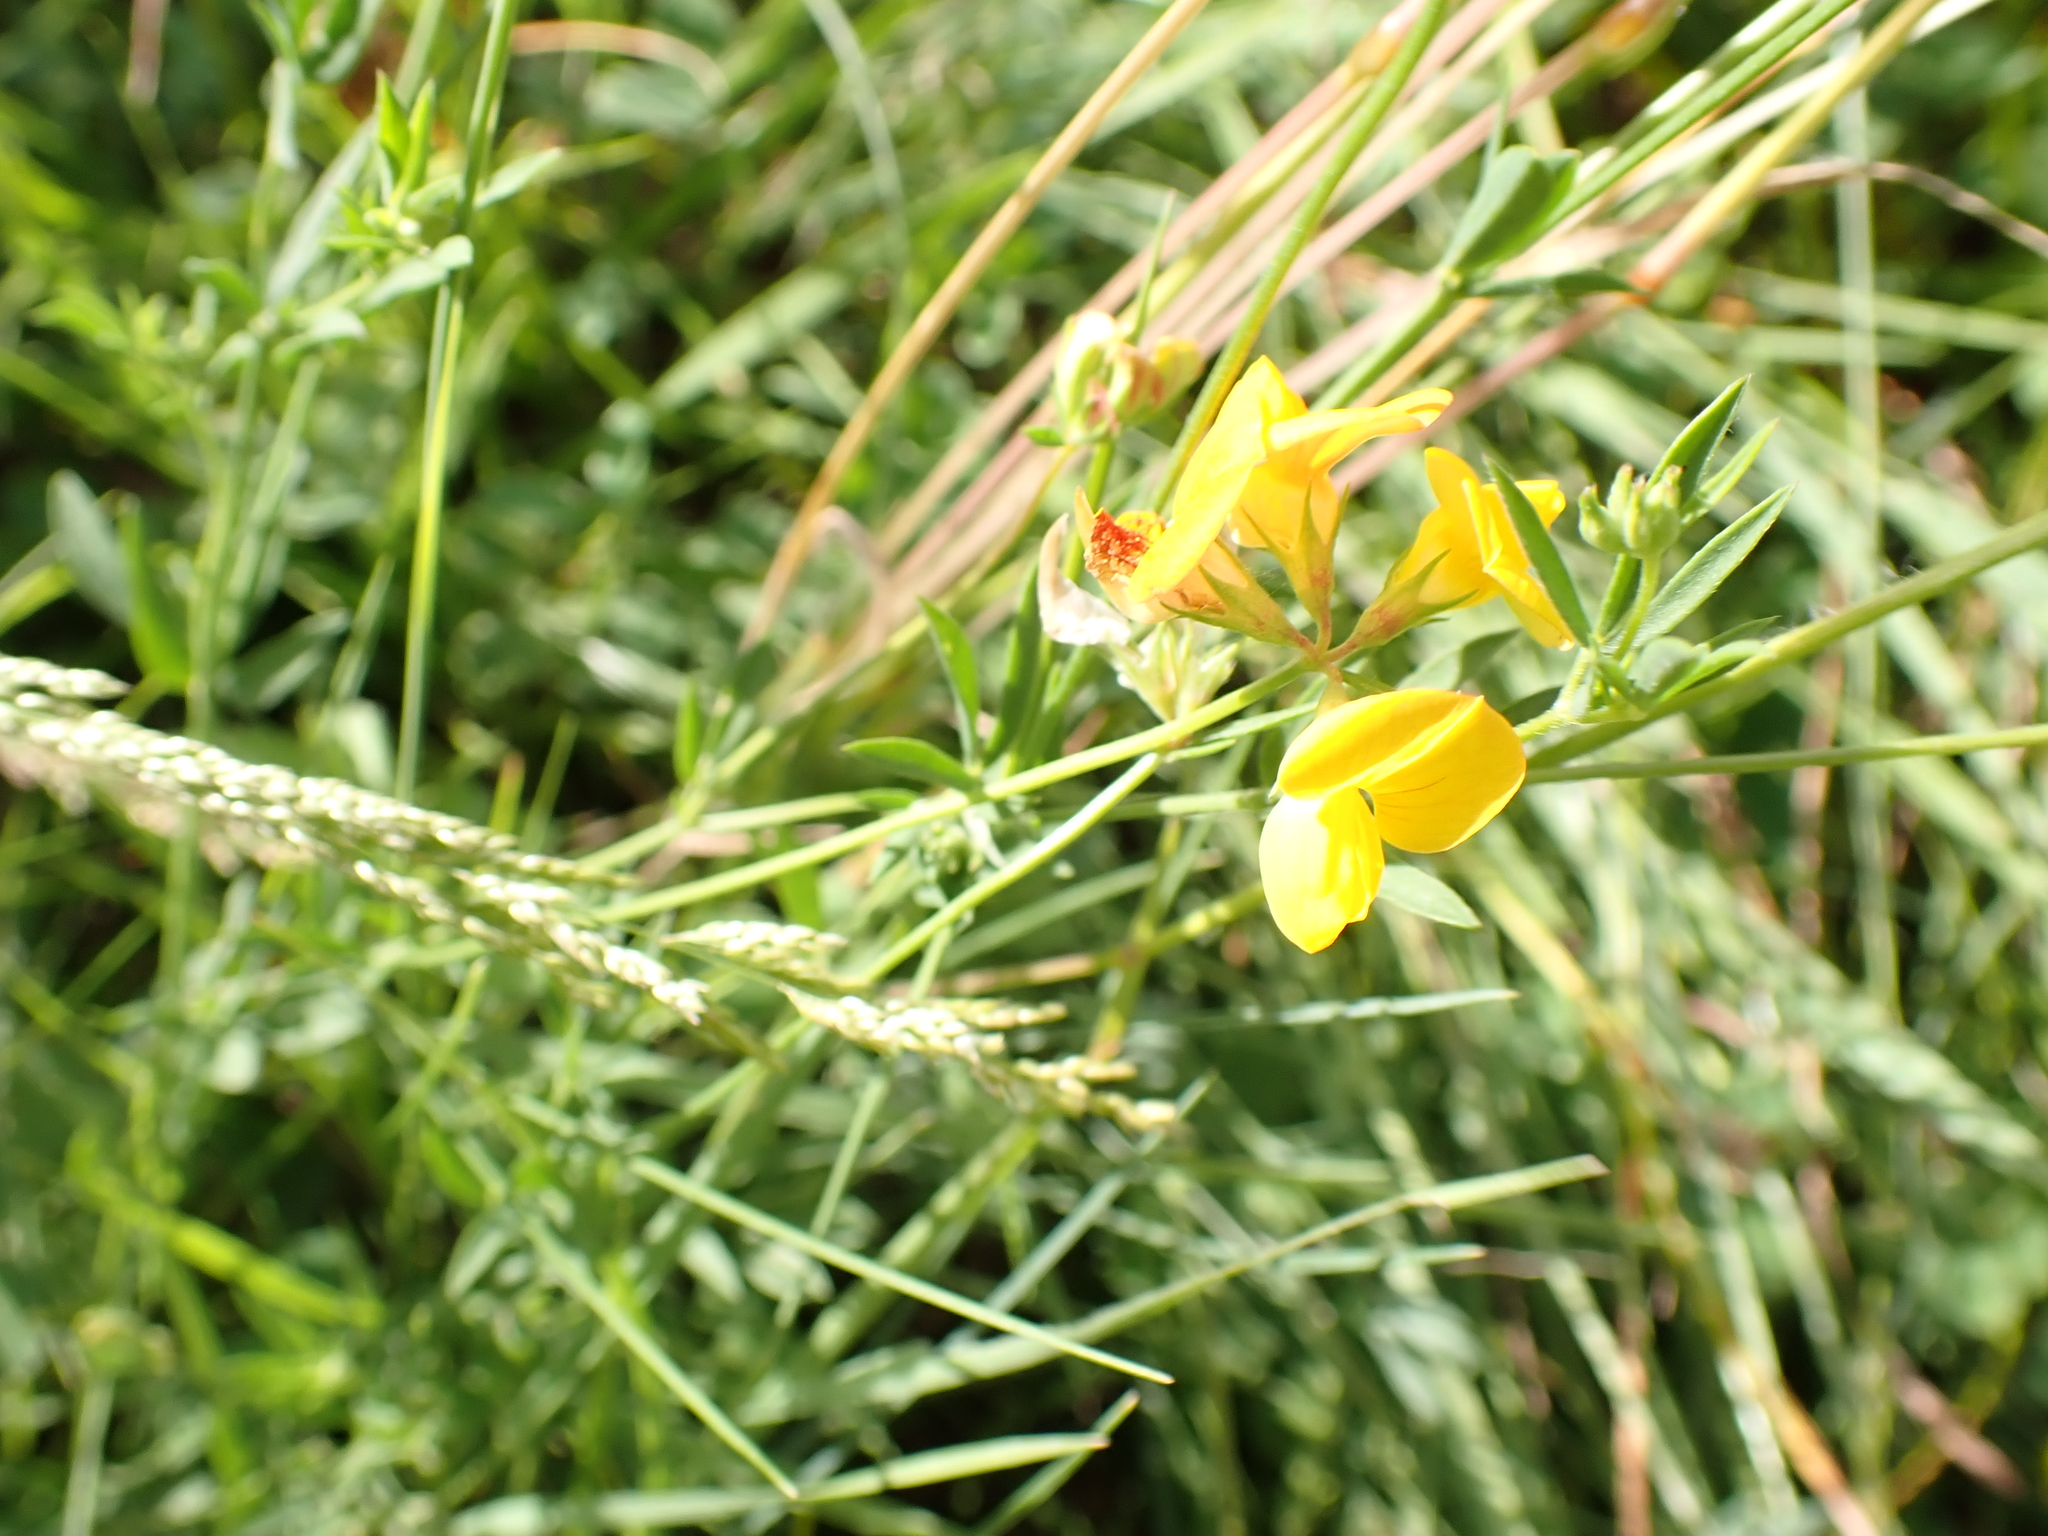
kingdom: Plantae
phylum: Tracheophyta
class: Magnoliopsida
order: Fabales
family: Fabaceae
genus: Lotus
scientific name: Lotus tenuis
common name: Narrow-leaved bird's-foot-trefoil
